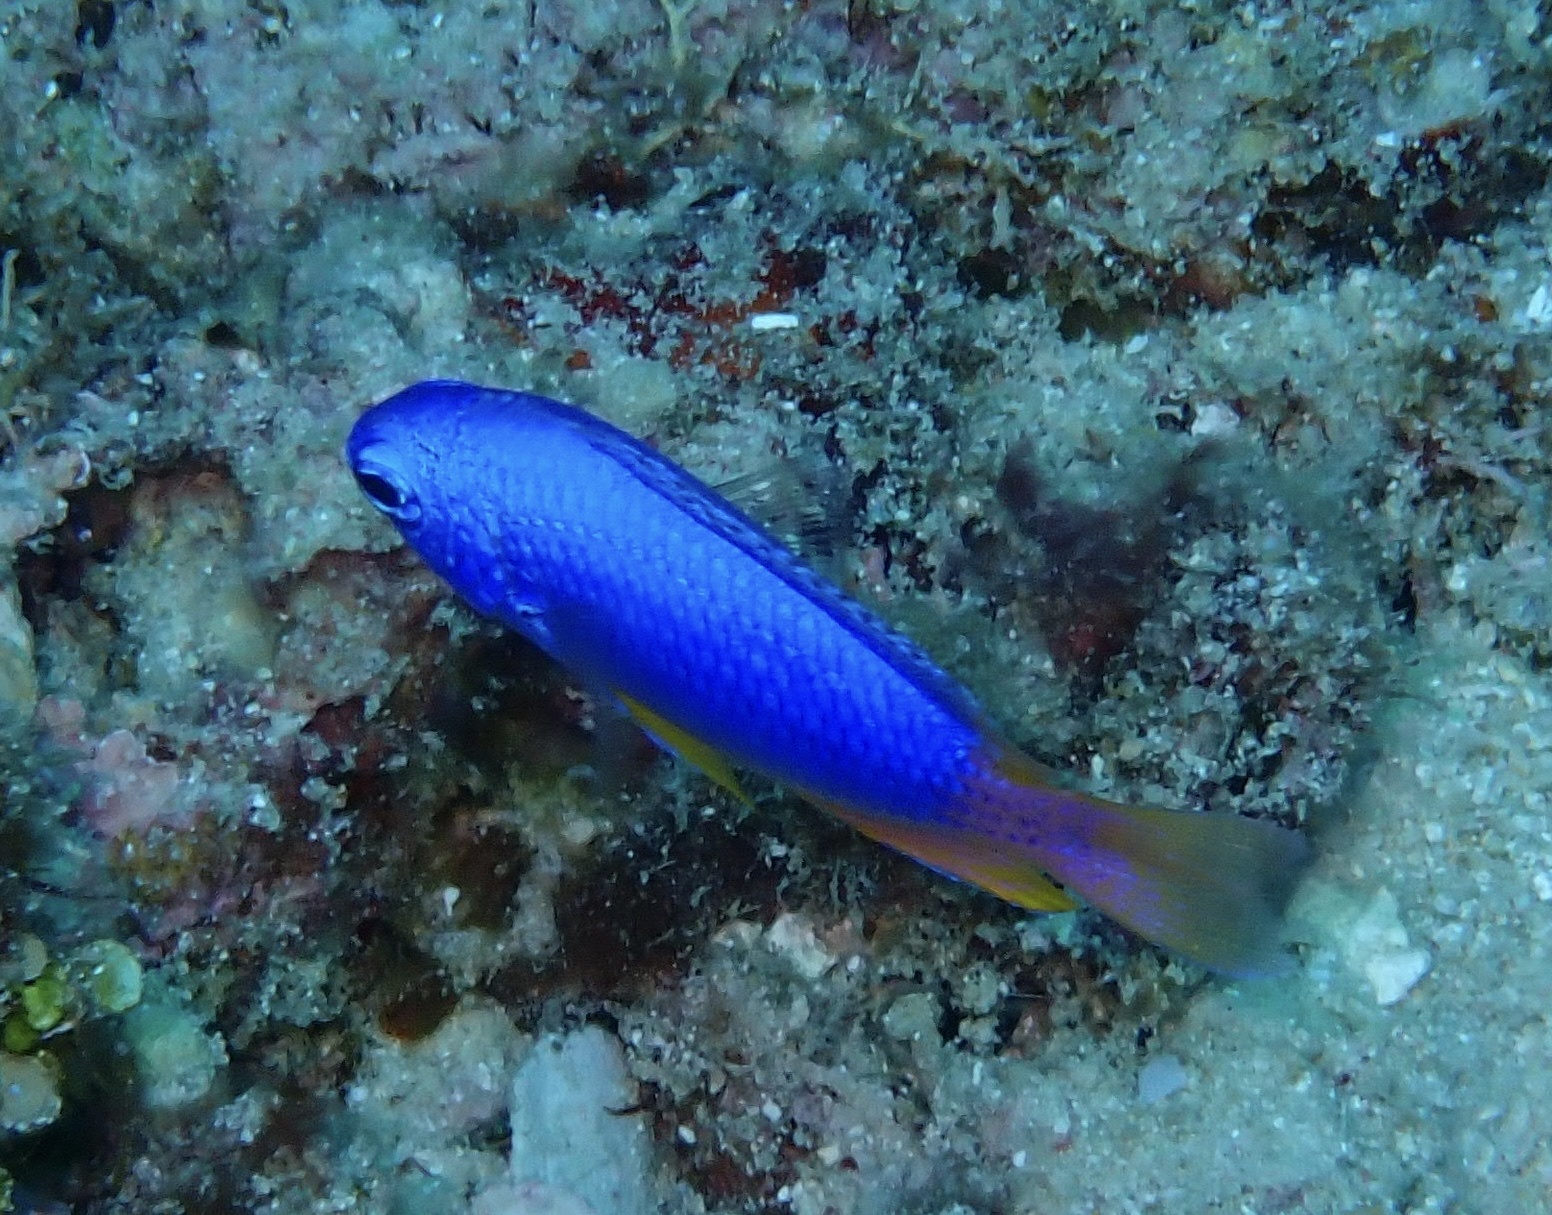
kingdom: Animalia
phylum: Chordata
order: Perciformes
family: Pomacentridae
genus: Pomacentrus
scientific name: Pomacentrus coelestis
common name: Neon damsel
